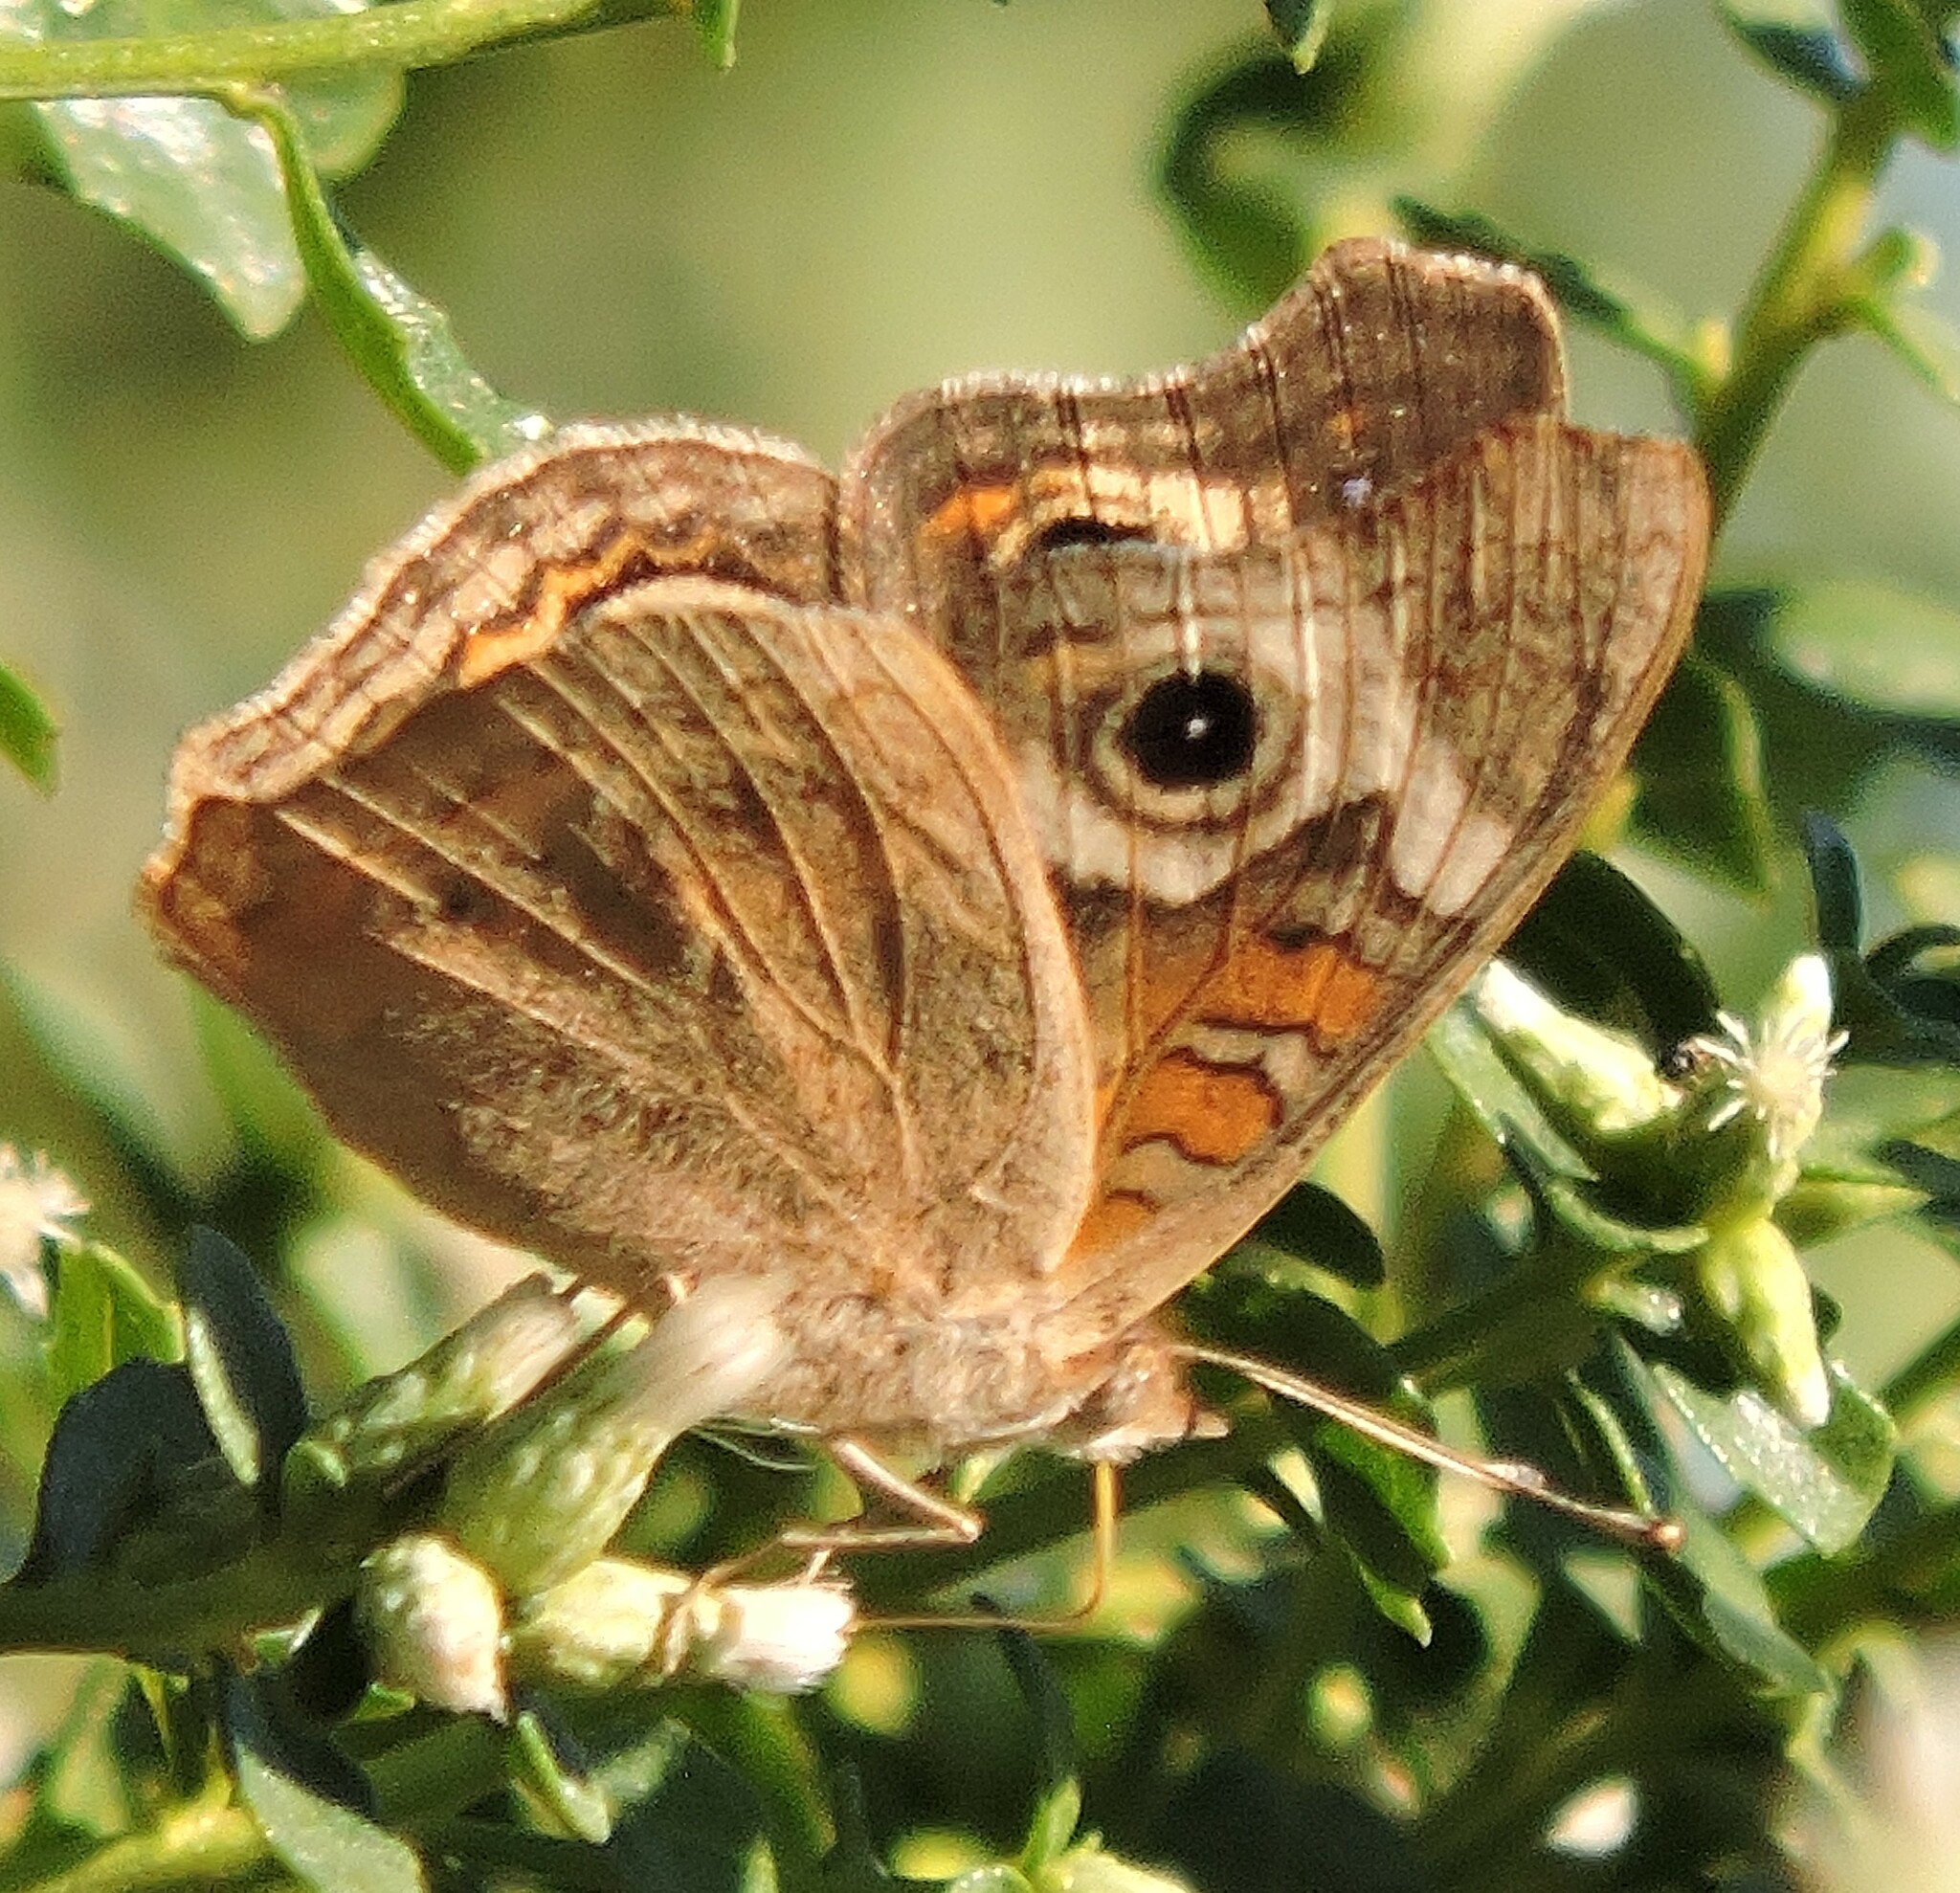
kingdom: Animalia
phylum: Arthropoda
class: Insecta
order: Lepidoptera
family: Nymphalidae
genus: Junonia
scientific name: Junonia grisea
